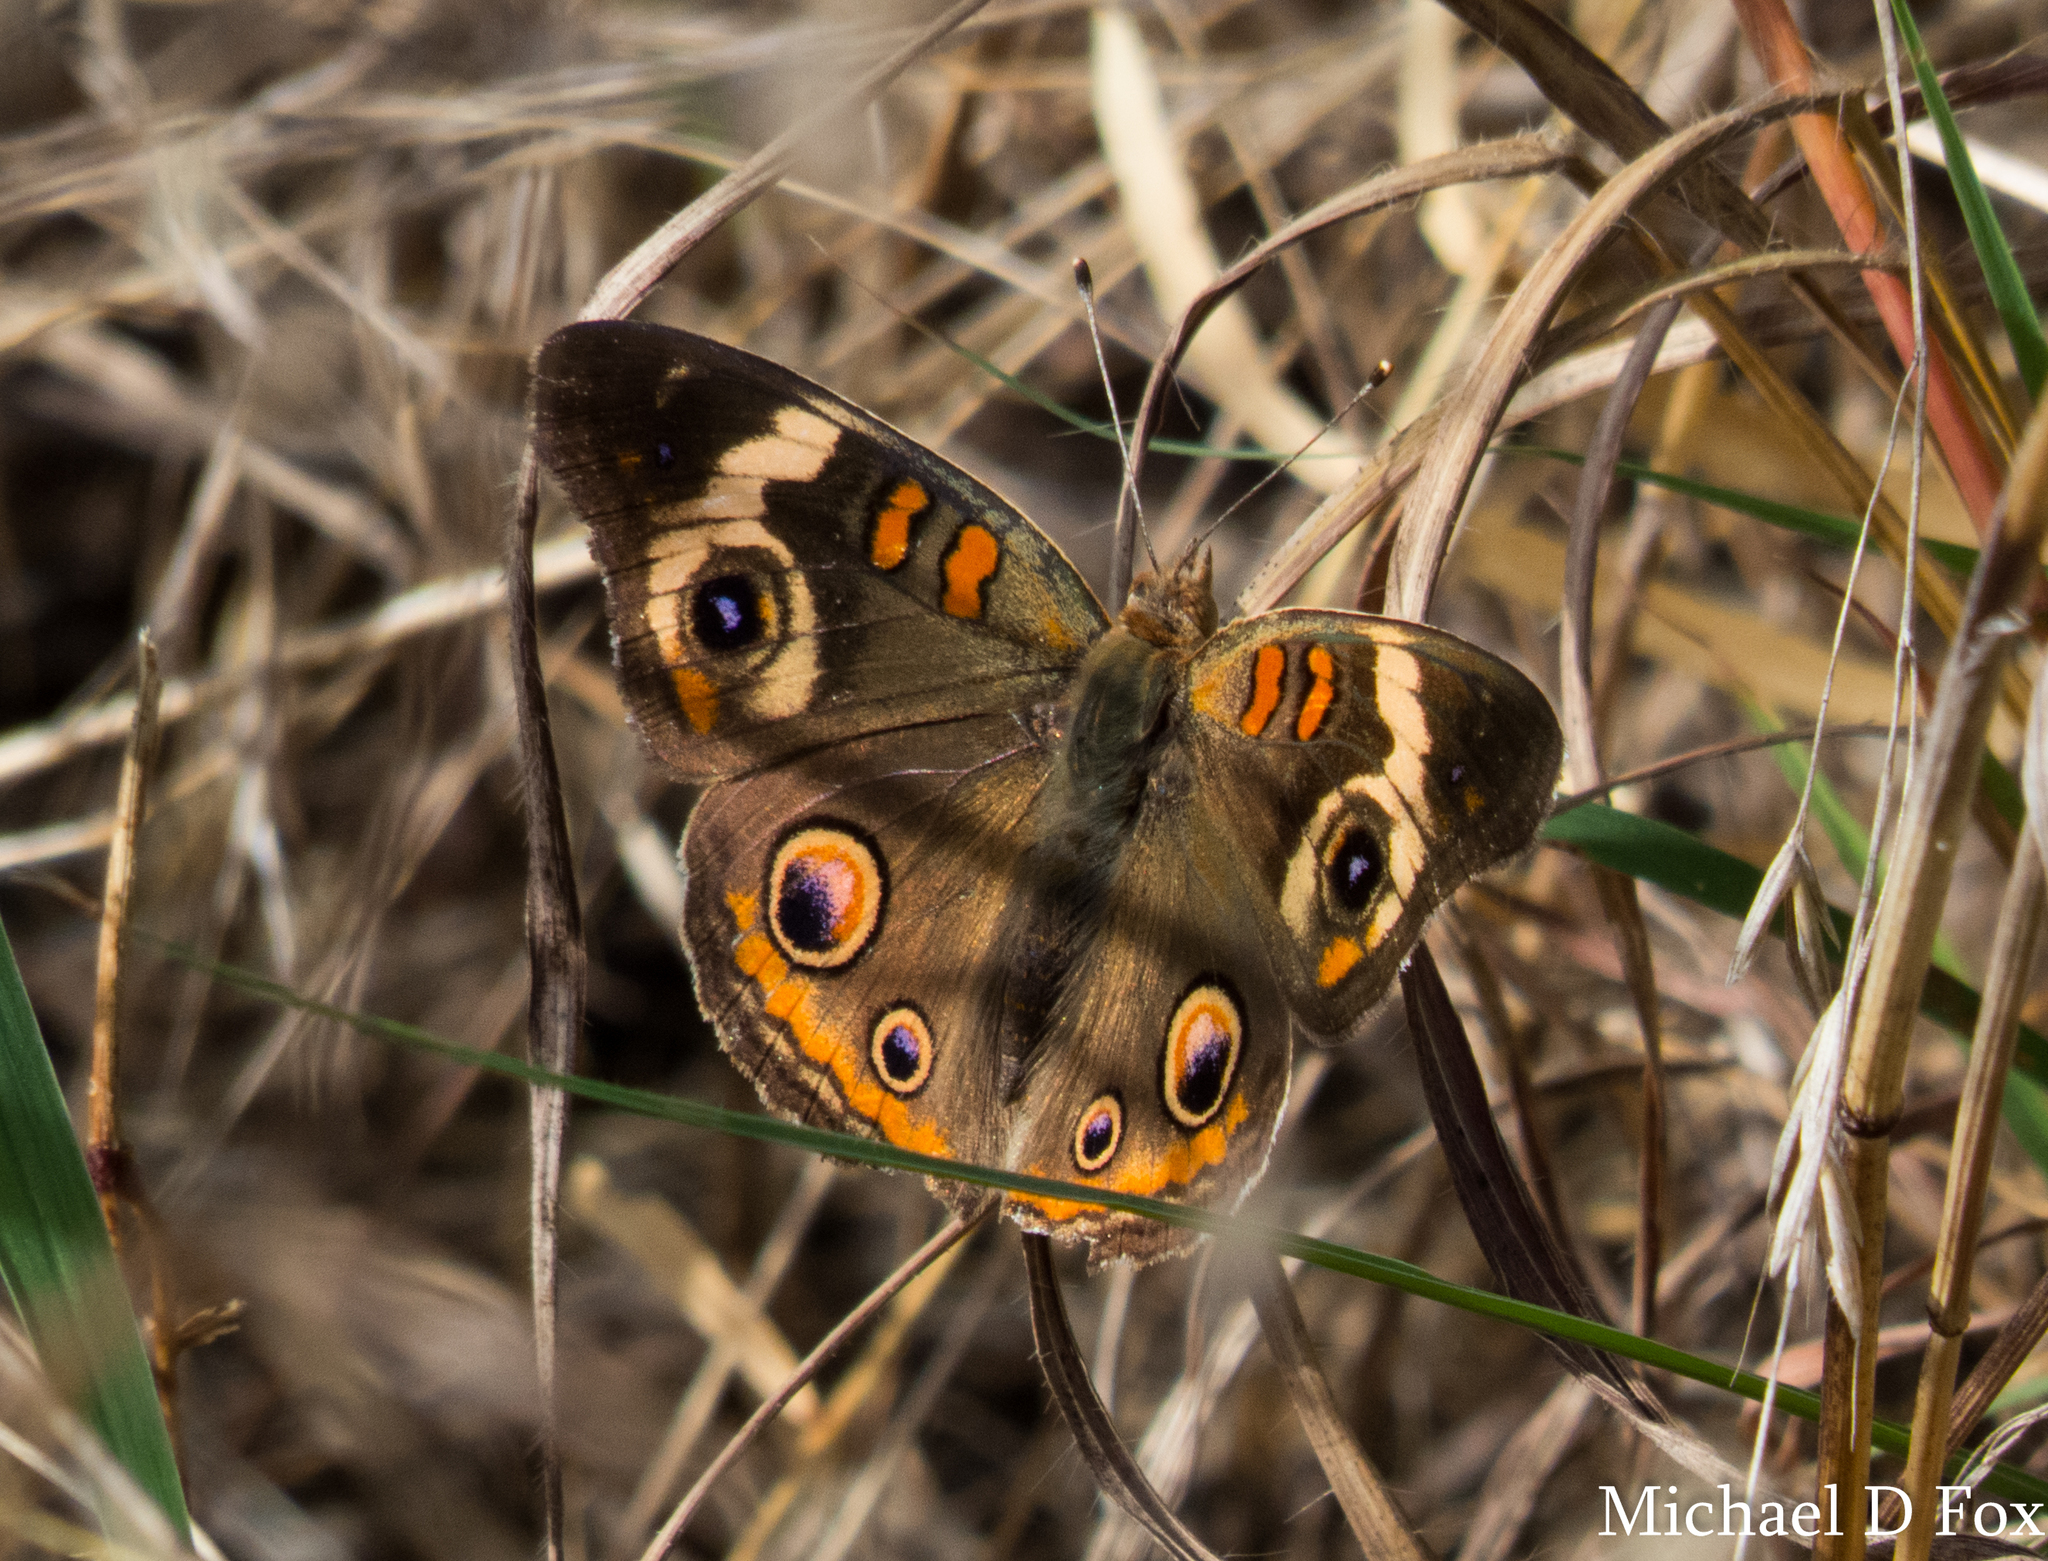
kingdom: Animalia
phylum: Arthropoda
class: Insecta
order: Lepidoptera
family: Nymphalidae
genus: Junonia
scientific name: Junonia coenia
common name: Common buckeye
